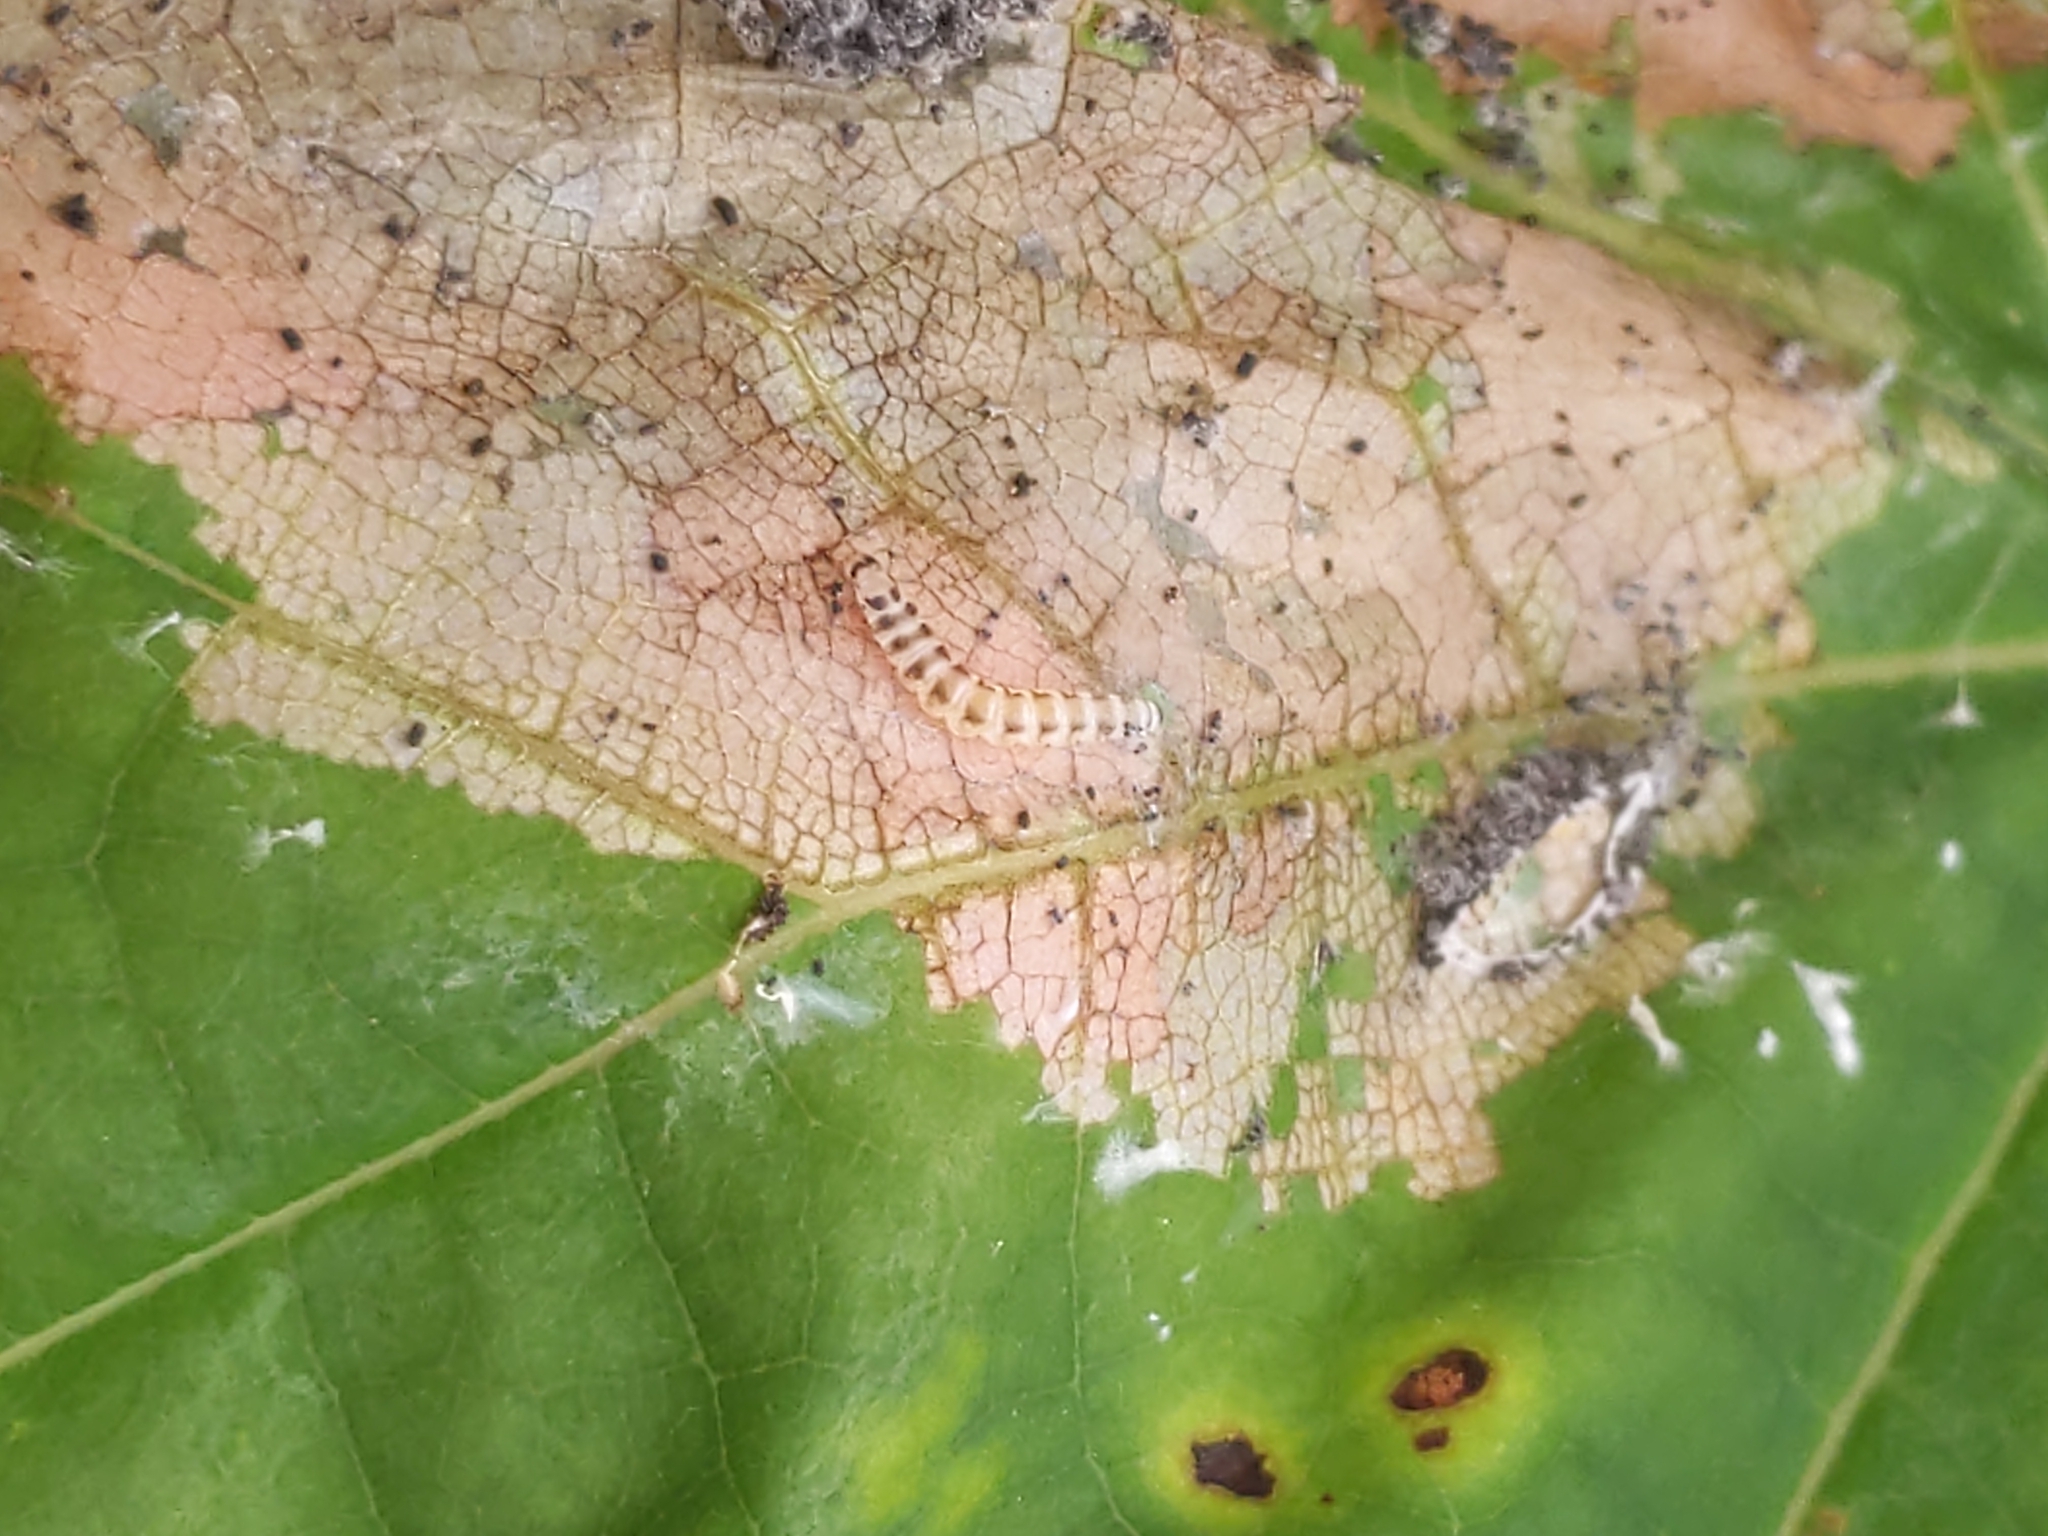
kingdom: Animalia
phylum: Arthropoda
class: Insecta
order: Lepidoptera
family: Gelechiidae
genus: Fascista
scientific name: Fascista cercerisella
